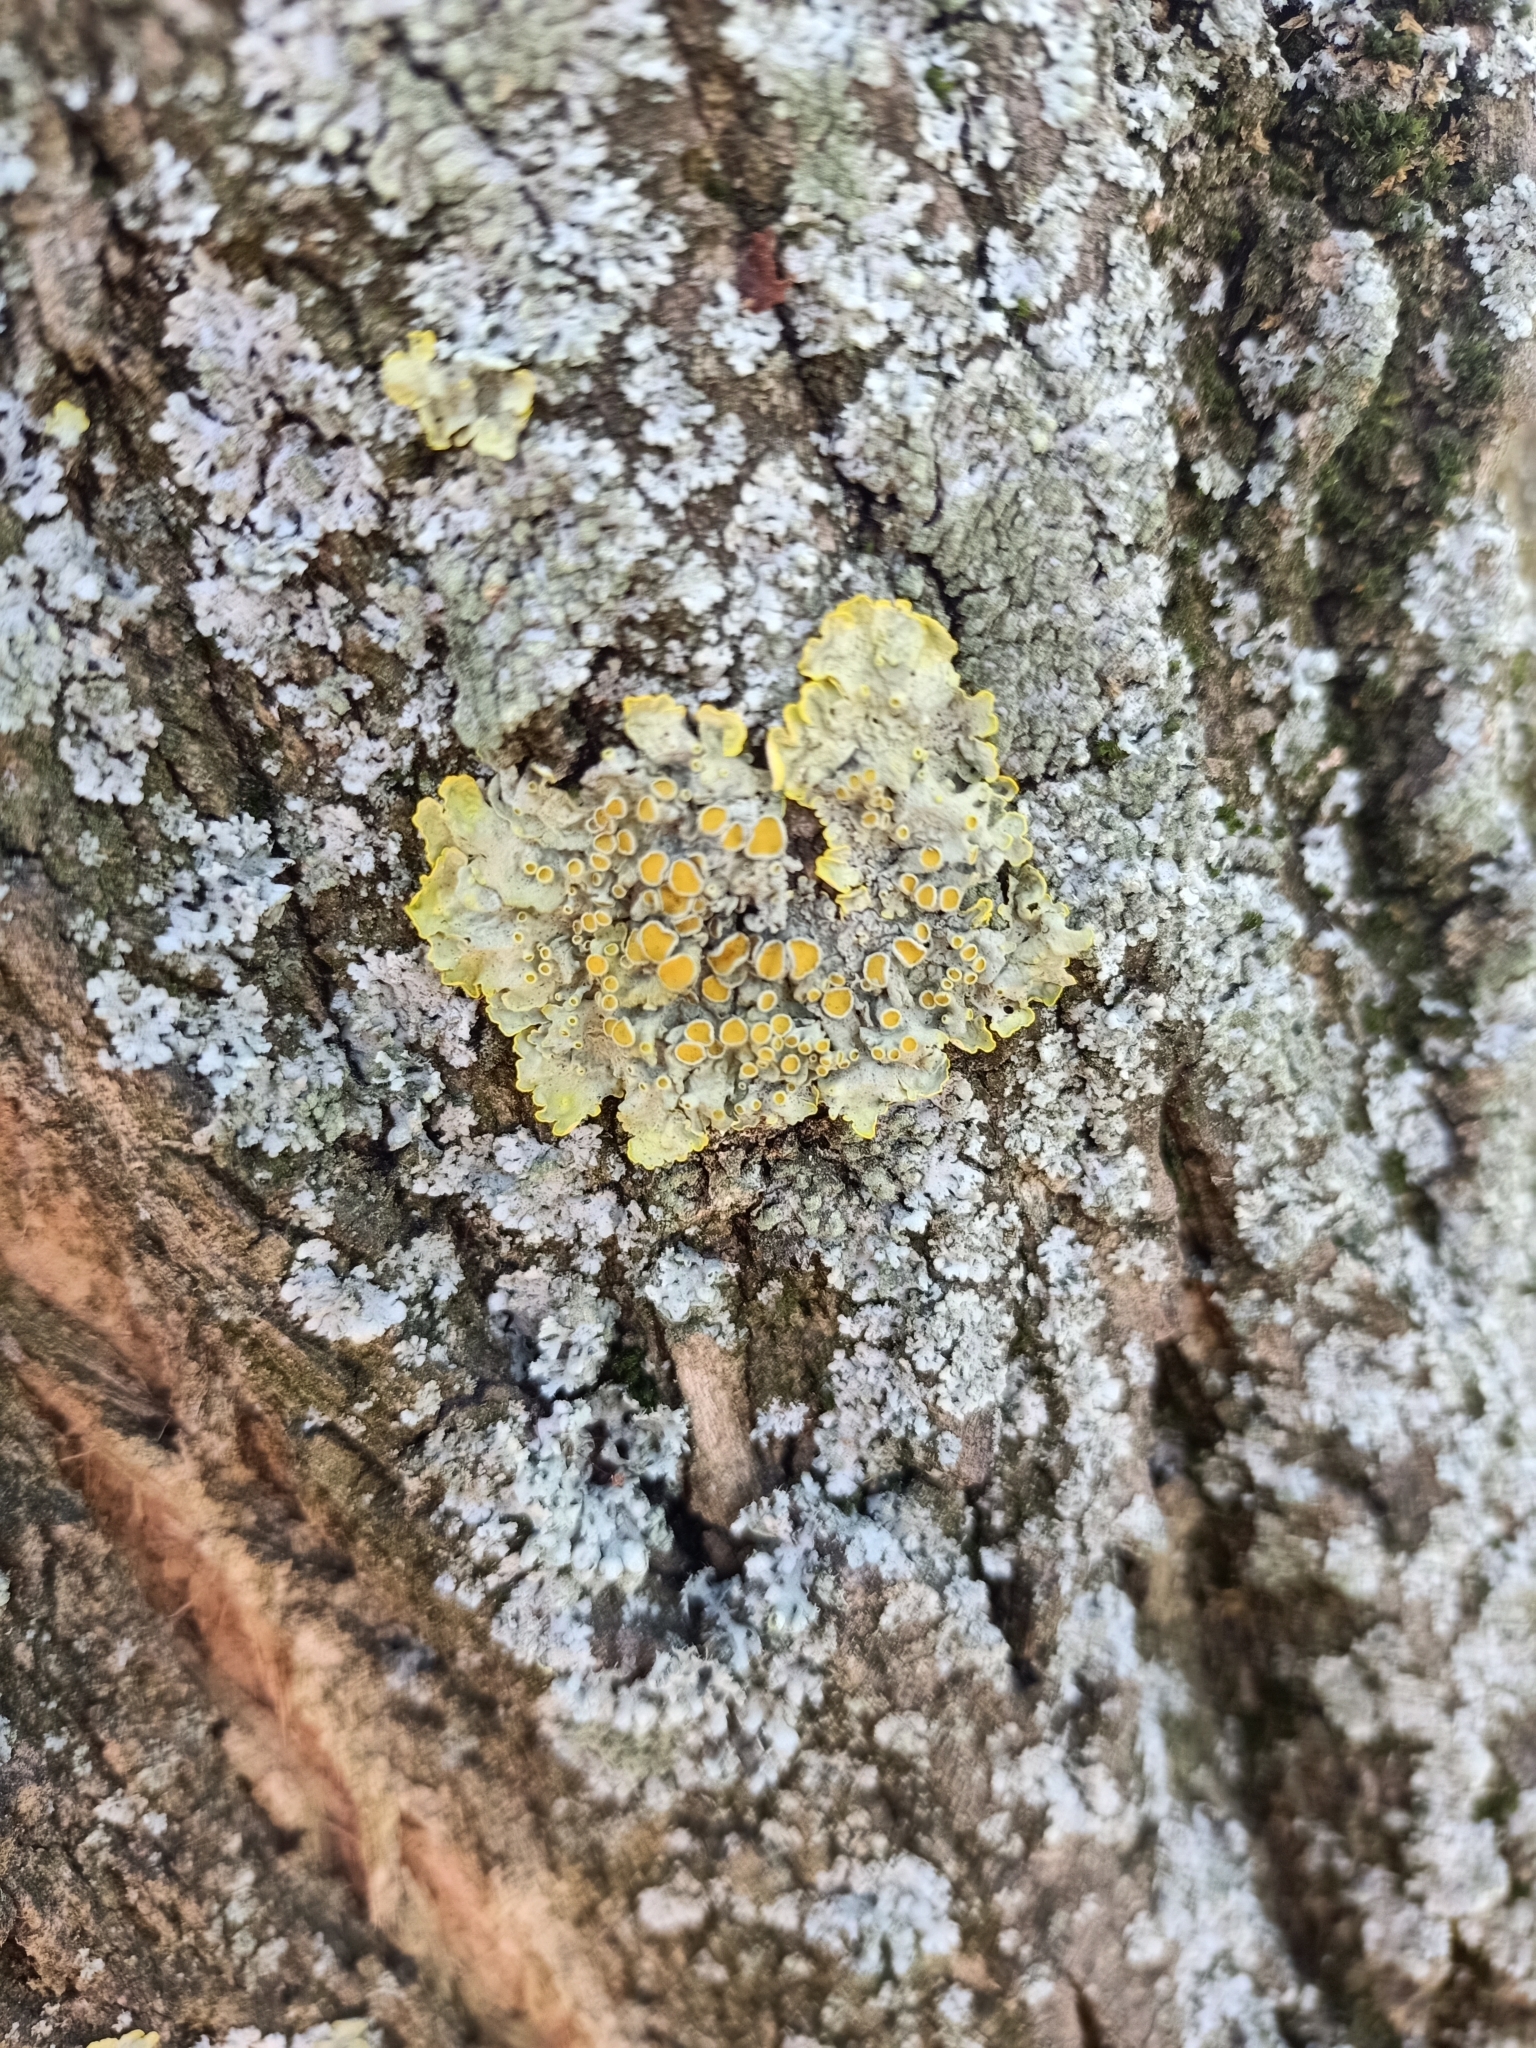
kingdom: Fungi
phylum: Ascomycota
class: Lecanoromycetes
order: Teloschistales
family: Teloschistaceae
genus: Xanthoria
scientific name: Xanthoria parietina
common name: Common orange lichen
